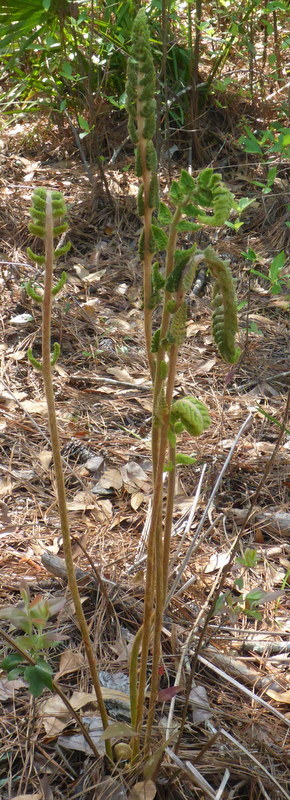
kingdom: Plantae
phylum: Tracheophyta
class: Polypodiopsida
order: Osmundales
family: Osmundaceae
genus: Osmundastrum
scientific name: Osmundastrum cinnamomeum
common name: Cinnamon fern
